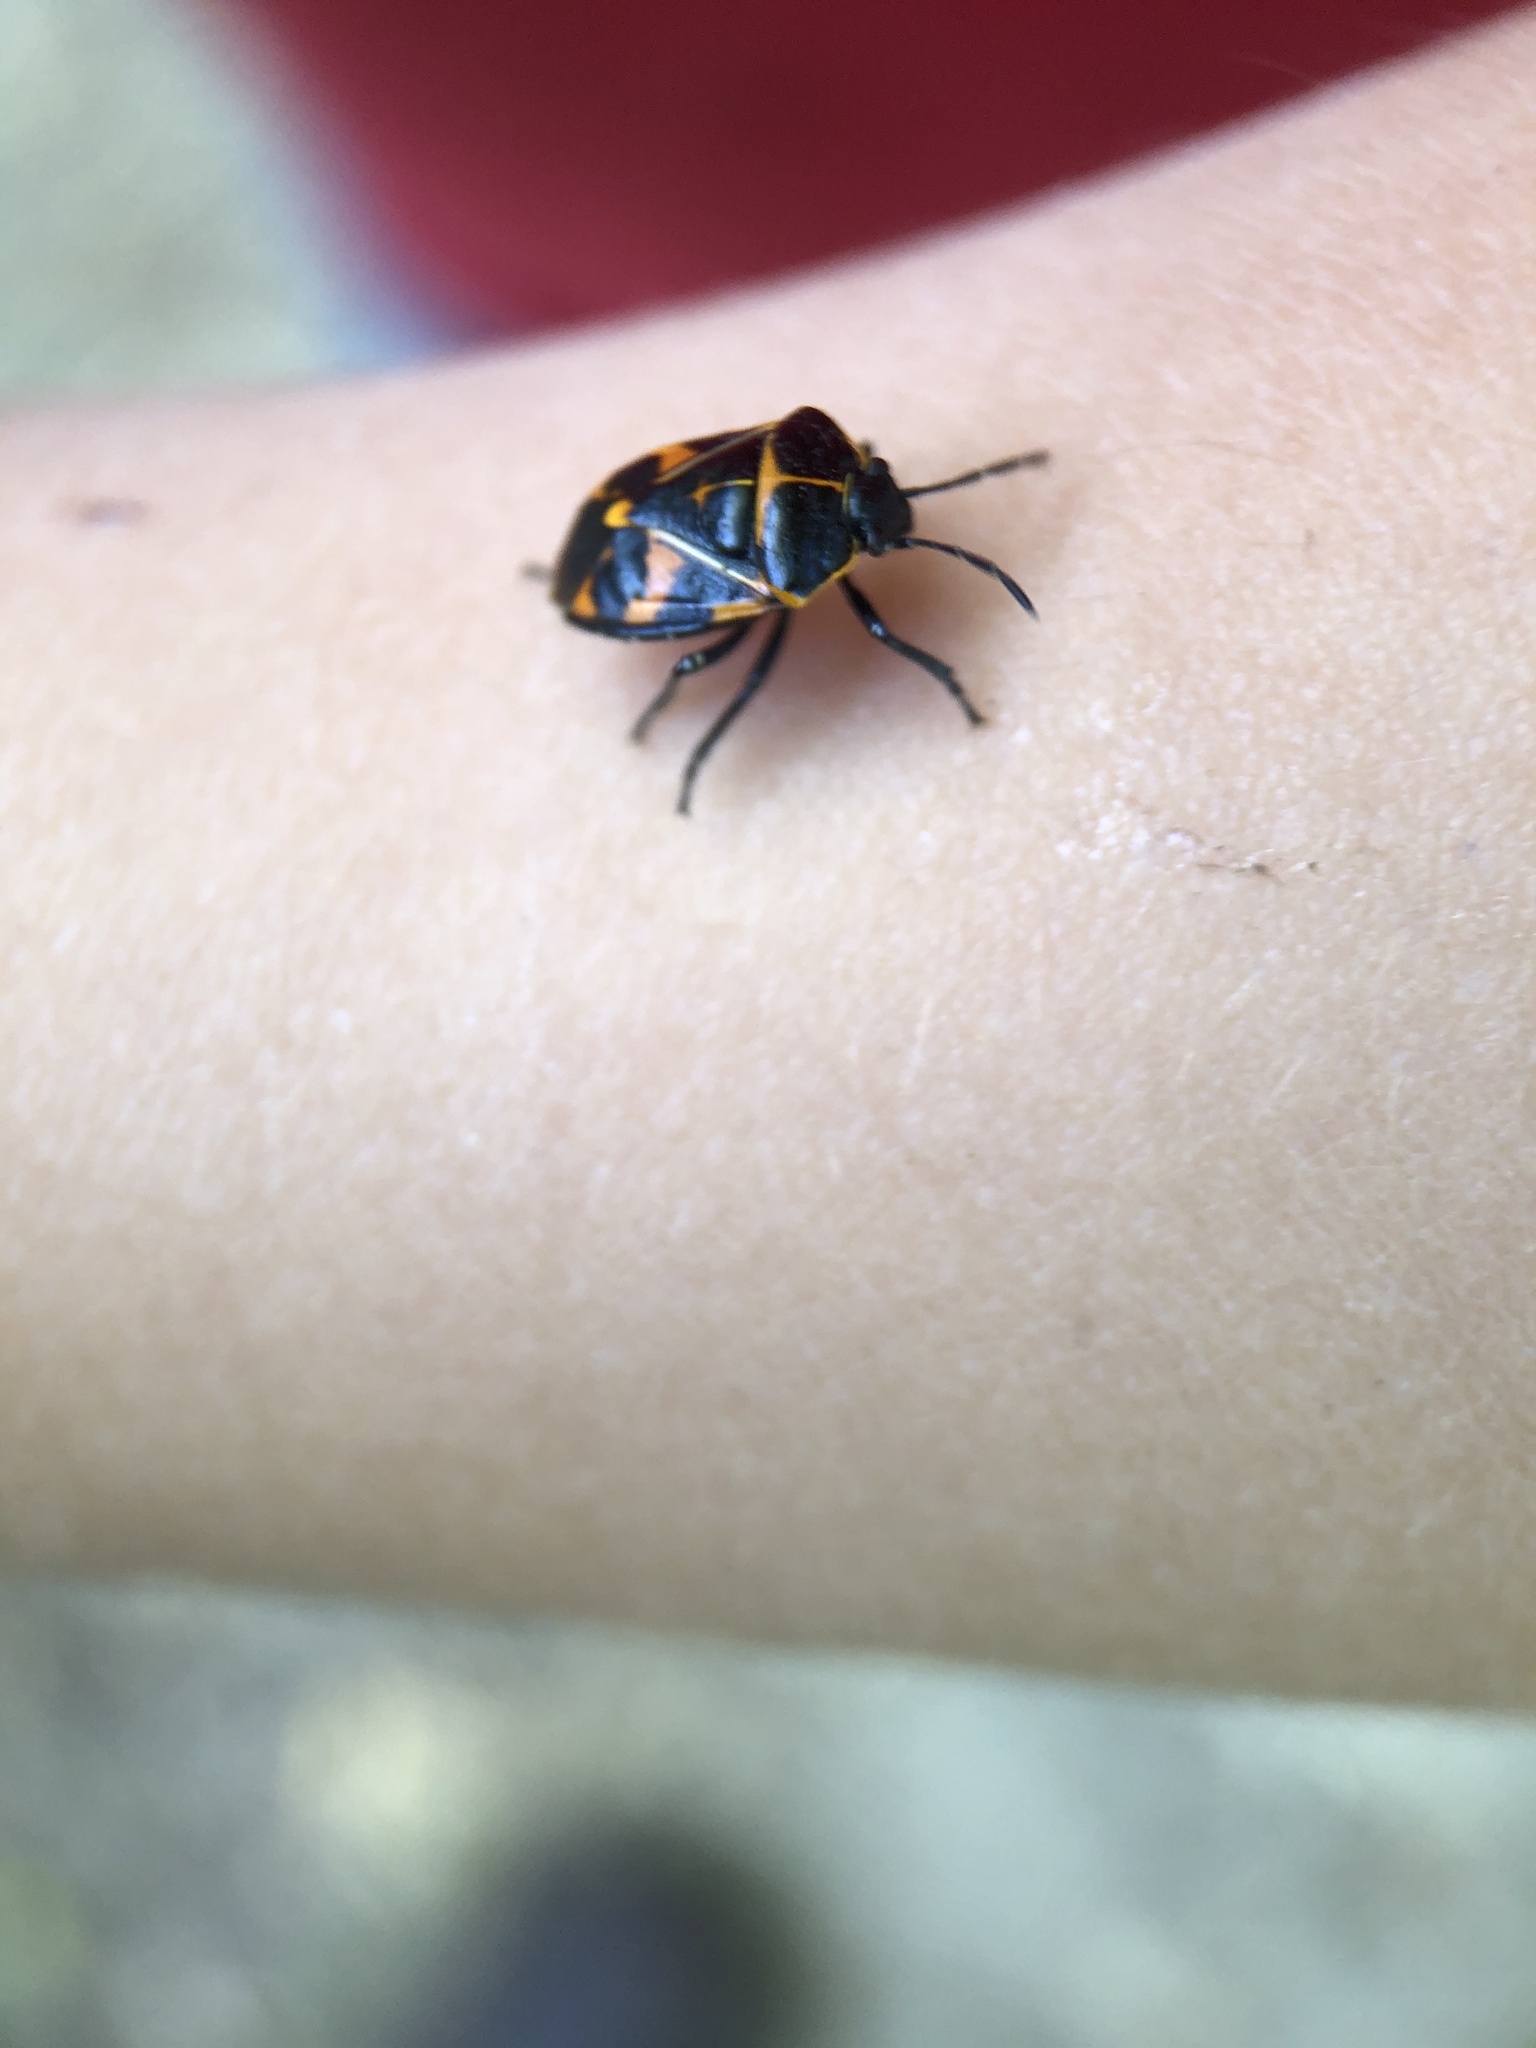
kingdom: Animalia
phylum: Arthropoda
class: Insecta
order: Hemiptera
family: Pentatomidae
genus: Murgantia
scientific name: Murgantia histrionica
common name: Harlequin bug
